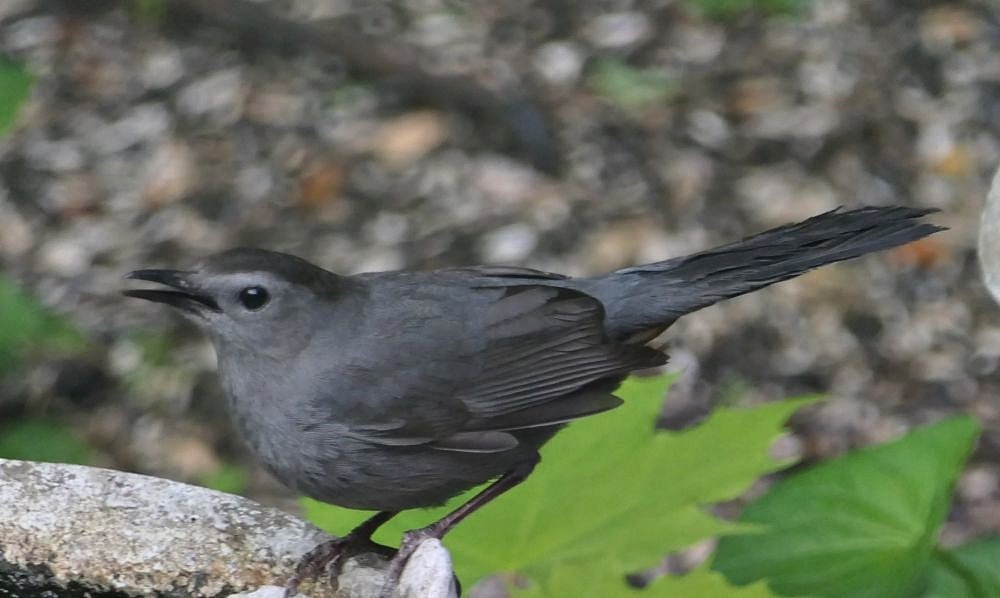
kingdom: Animalia
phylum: Chordata
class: Aves
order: Passeriformes
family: Mimidae
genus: Dumetella
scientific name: Dumetella carolinensis
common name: Gray catbird
